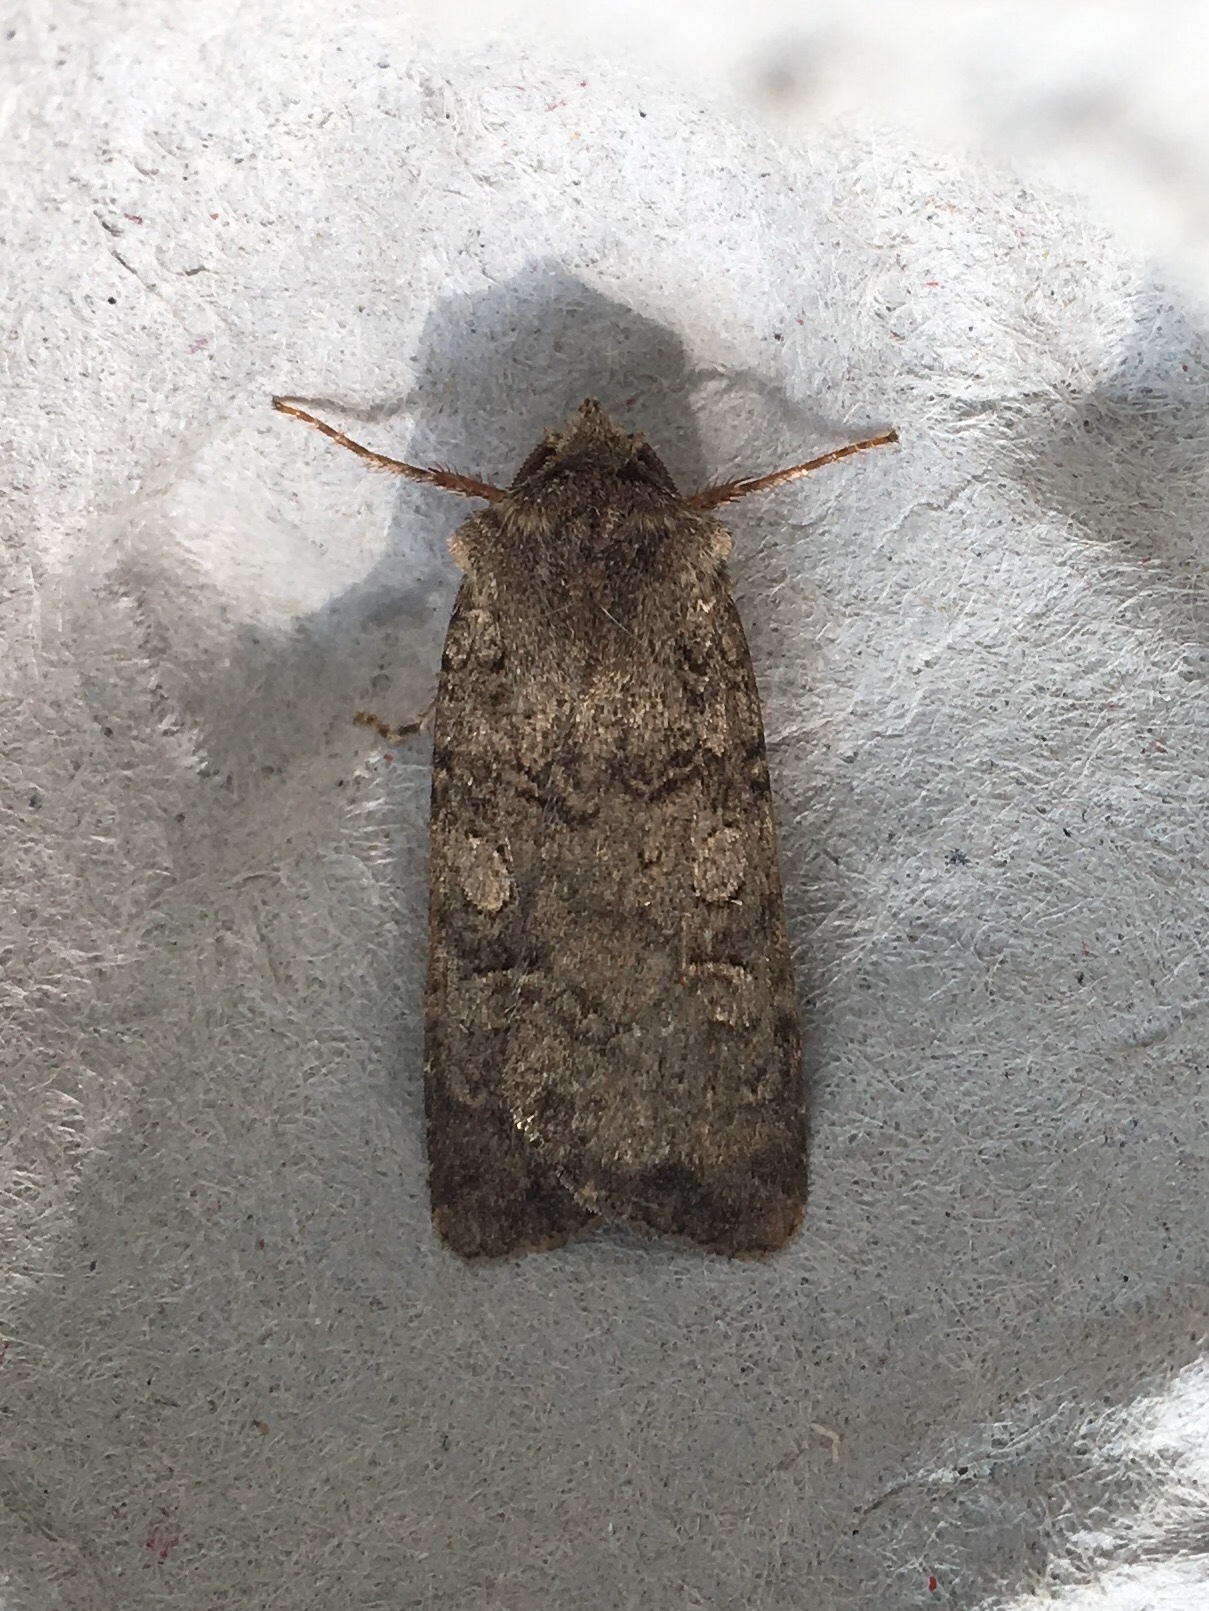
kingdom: Animalia
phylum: Arthropoda
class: Insecta
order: Lepidoptera
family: Noctuidae
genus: Euxoa
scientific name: Euxoa messoria
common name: Darksided cutworm
